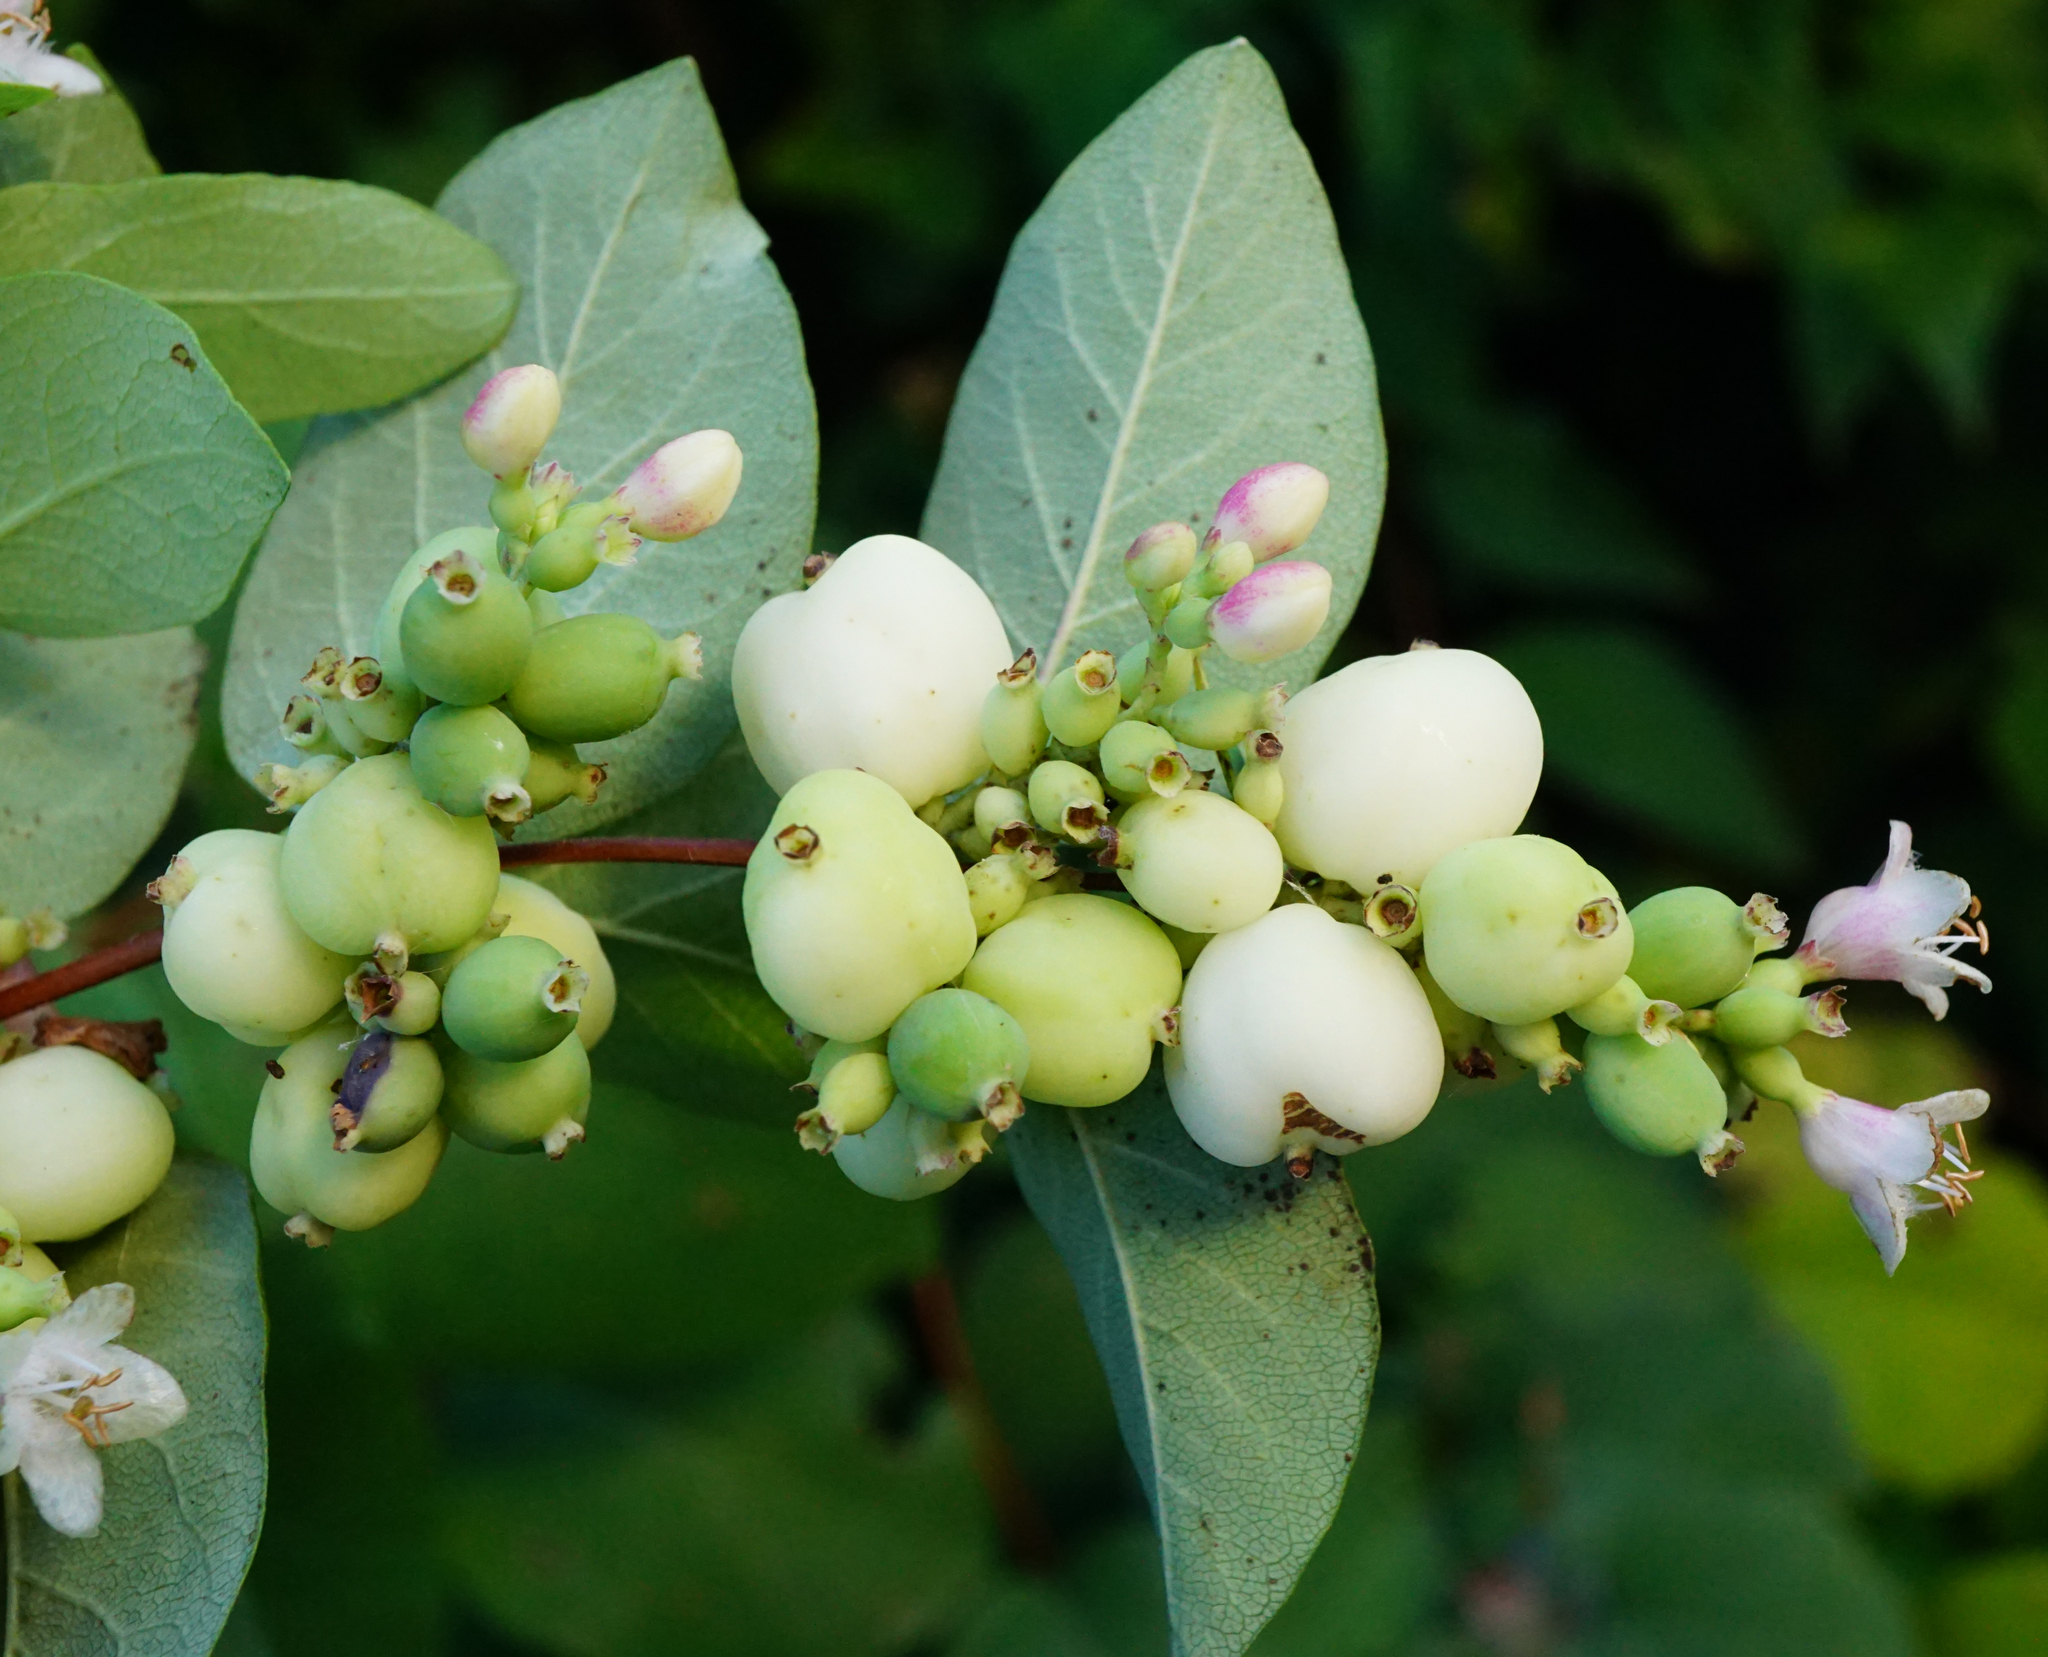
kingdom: Plantae
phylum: Tracheophyta
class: Magnoliopsida
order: Dipsacales
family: Caprifoliaceae
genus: Symphoricarpos
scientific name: Symphoricarpos albus
